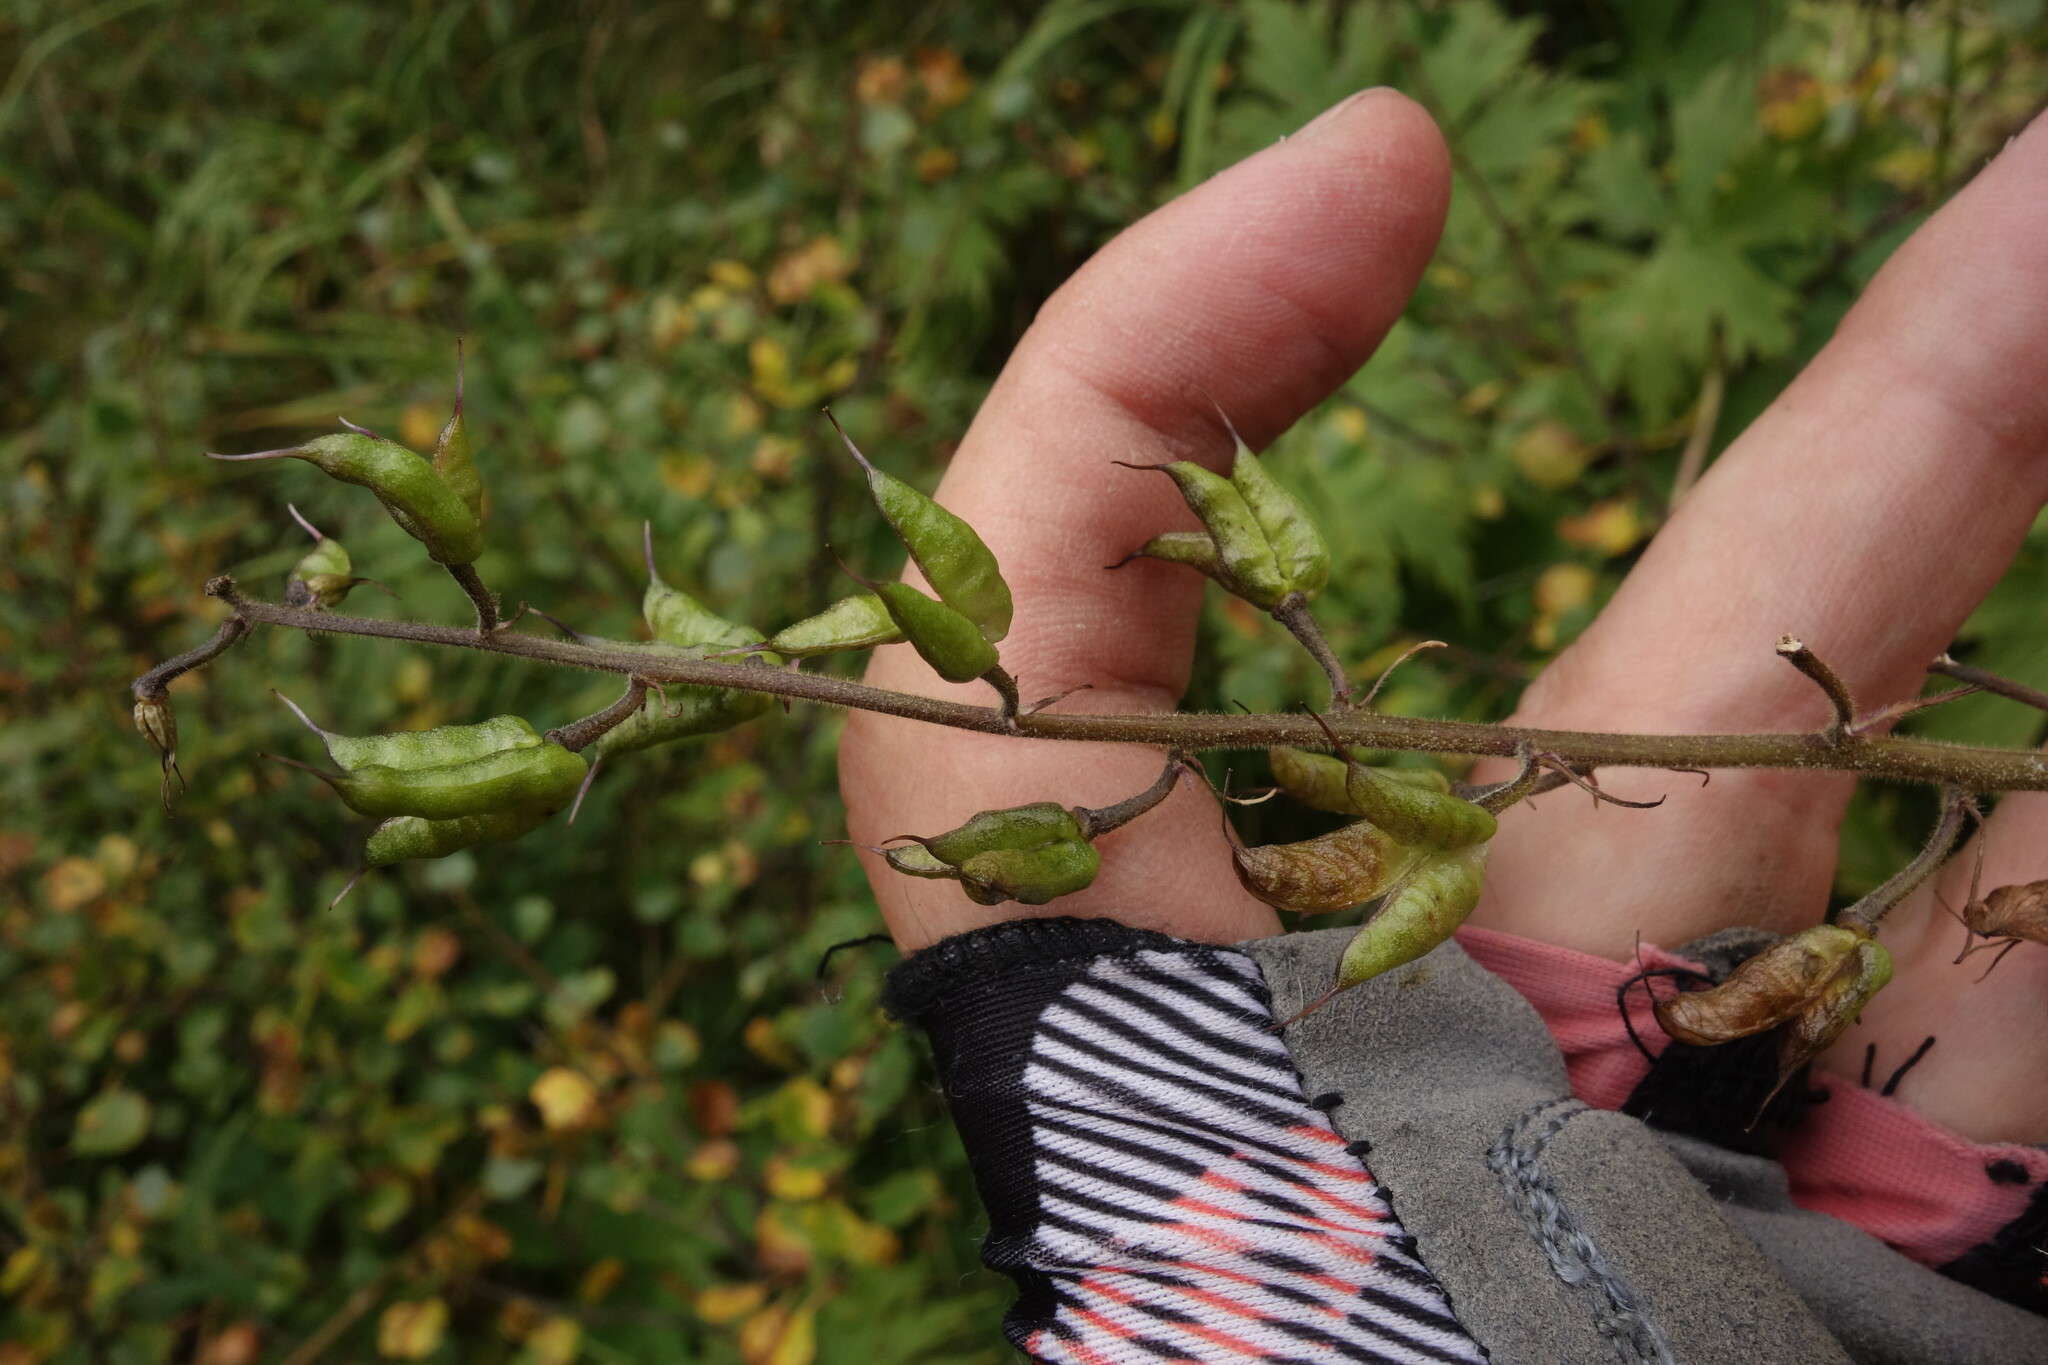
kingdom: Plantae
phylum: Tracheophyta
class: Magnoliopsida
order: Ranunculales
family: Ranunculaceae
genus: Aconitum
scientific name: Aconitum septentrionale
